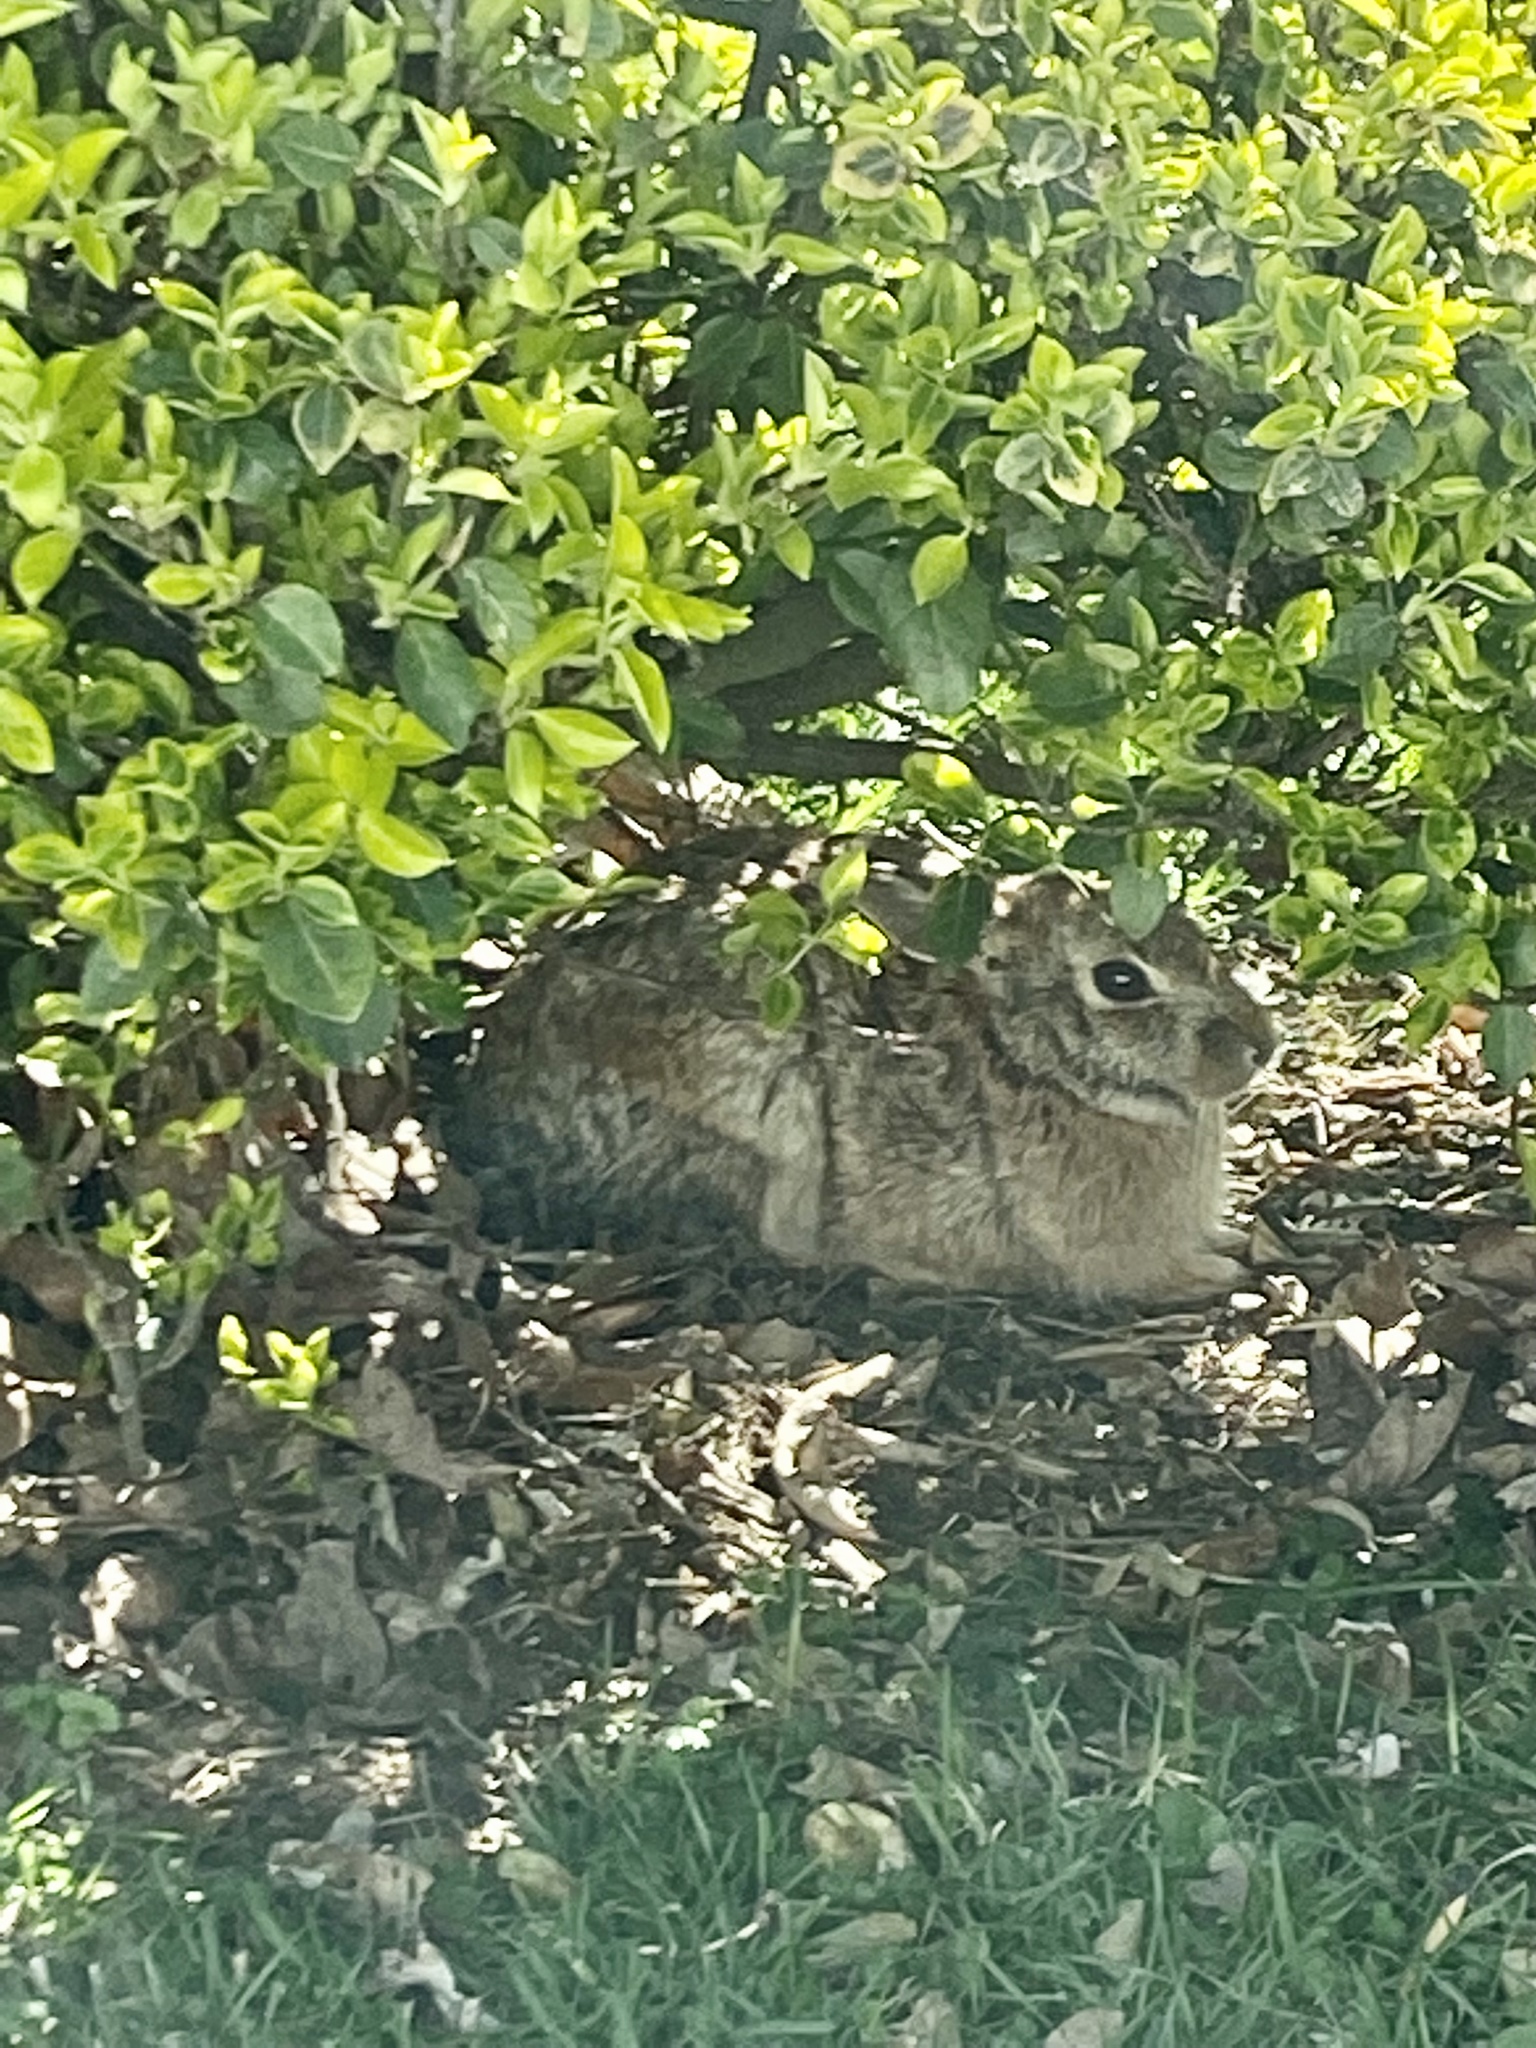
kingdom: Animalia
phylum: Chordata
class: Mammalia
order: Lagomorpha
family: Leporidae
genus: Sylvilagus
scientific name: Sylvilagus floridanus
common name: Eastern cottontail
